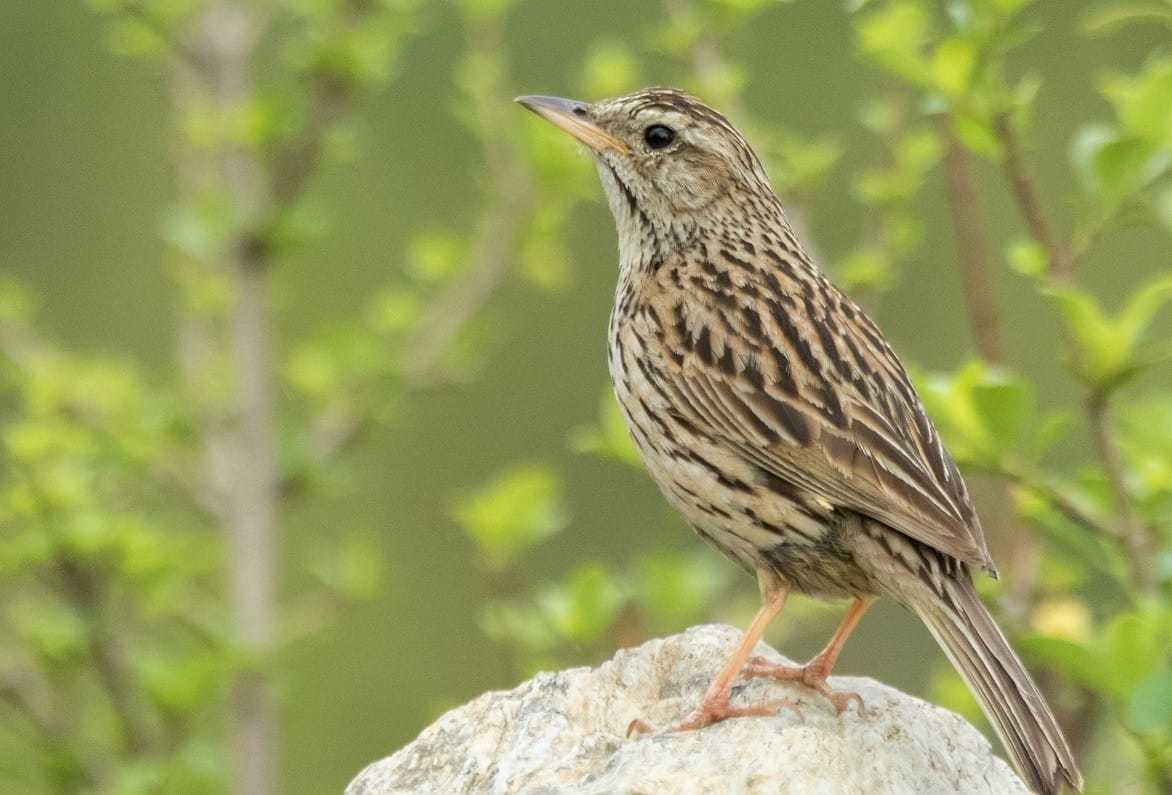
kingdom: Animalia
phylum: Chordata
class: Aves
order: Passeriformes
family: Motacillidae
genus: Anthus
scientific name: Anthus sylvanus
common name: Upland pipit
